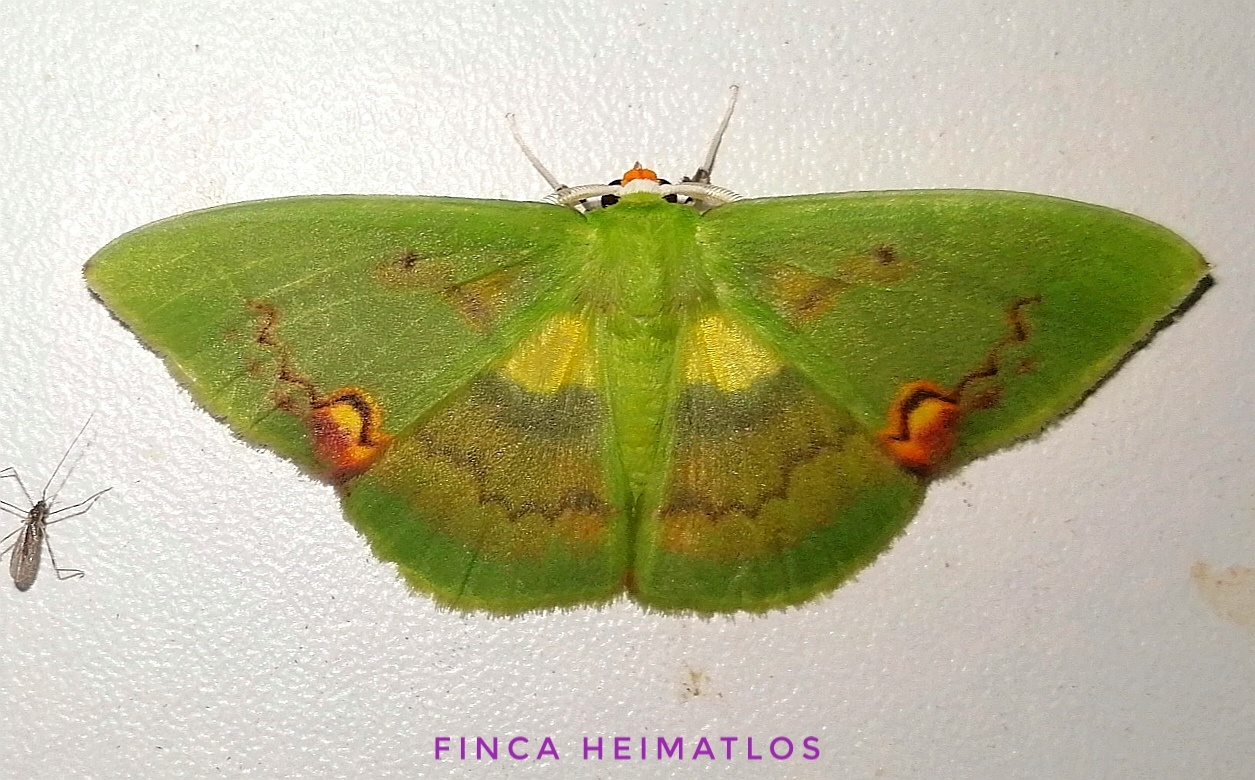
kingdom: Animalia
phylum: Arthropoda
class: Insecta
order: Lepidoptera
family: Geometridae
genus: Rhodochlora
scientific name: Rhodochlora brunneipalpis
